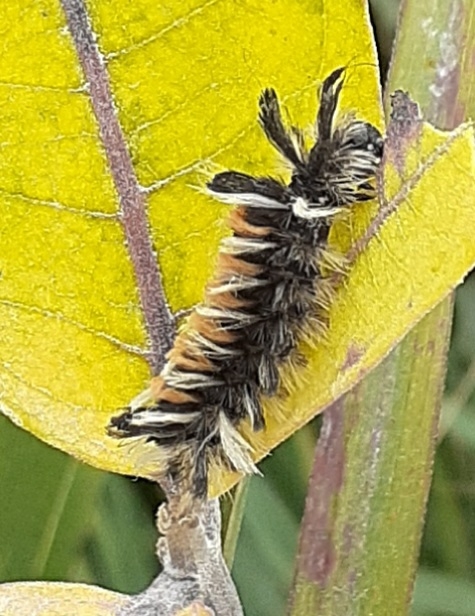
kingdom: Animalia
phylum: Arthropoda
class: Insecta
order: Lepidoptera
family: Erebidae
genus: Euchaetes
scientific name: Euchaetes egle
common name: Milkweed tussock moth
